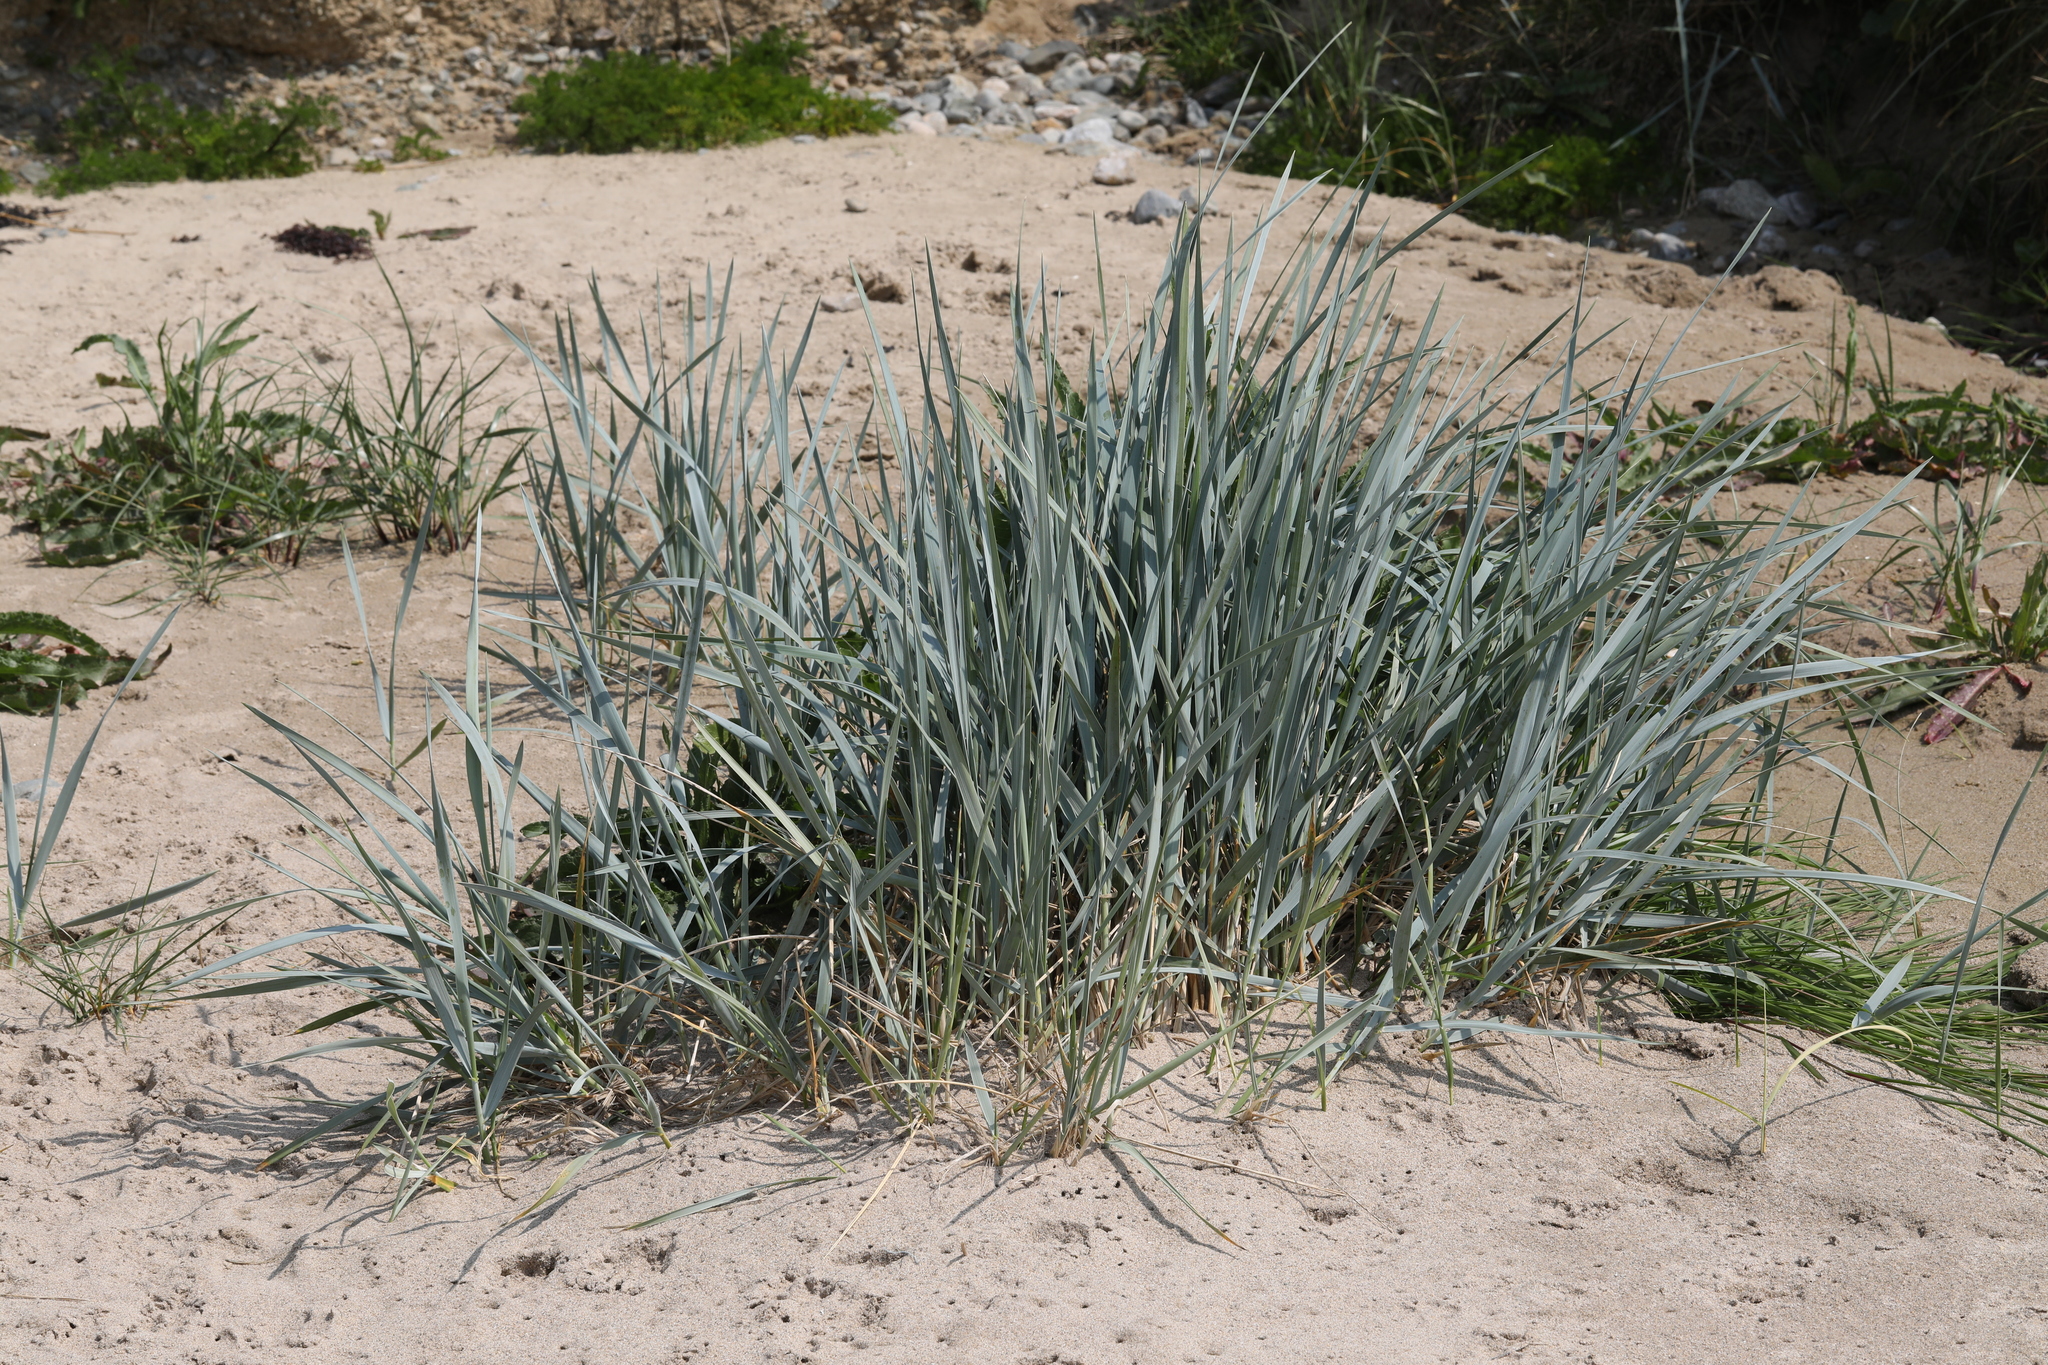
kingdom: Plantae
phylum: Tracheophyta
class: Liliopsida
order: Poales
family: Poaceae
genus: Leymus
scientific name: Leymus arenarius
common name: Lyme-grass
